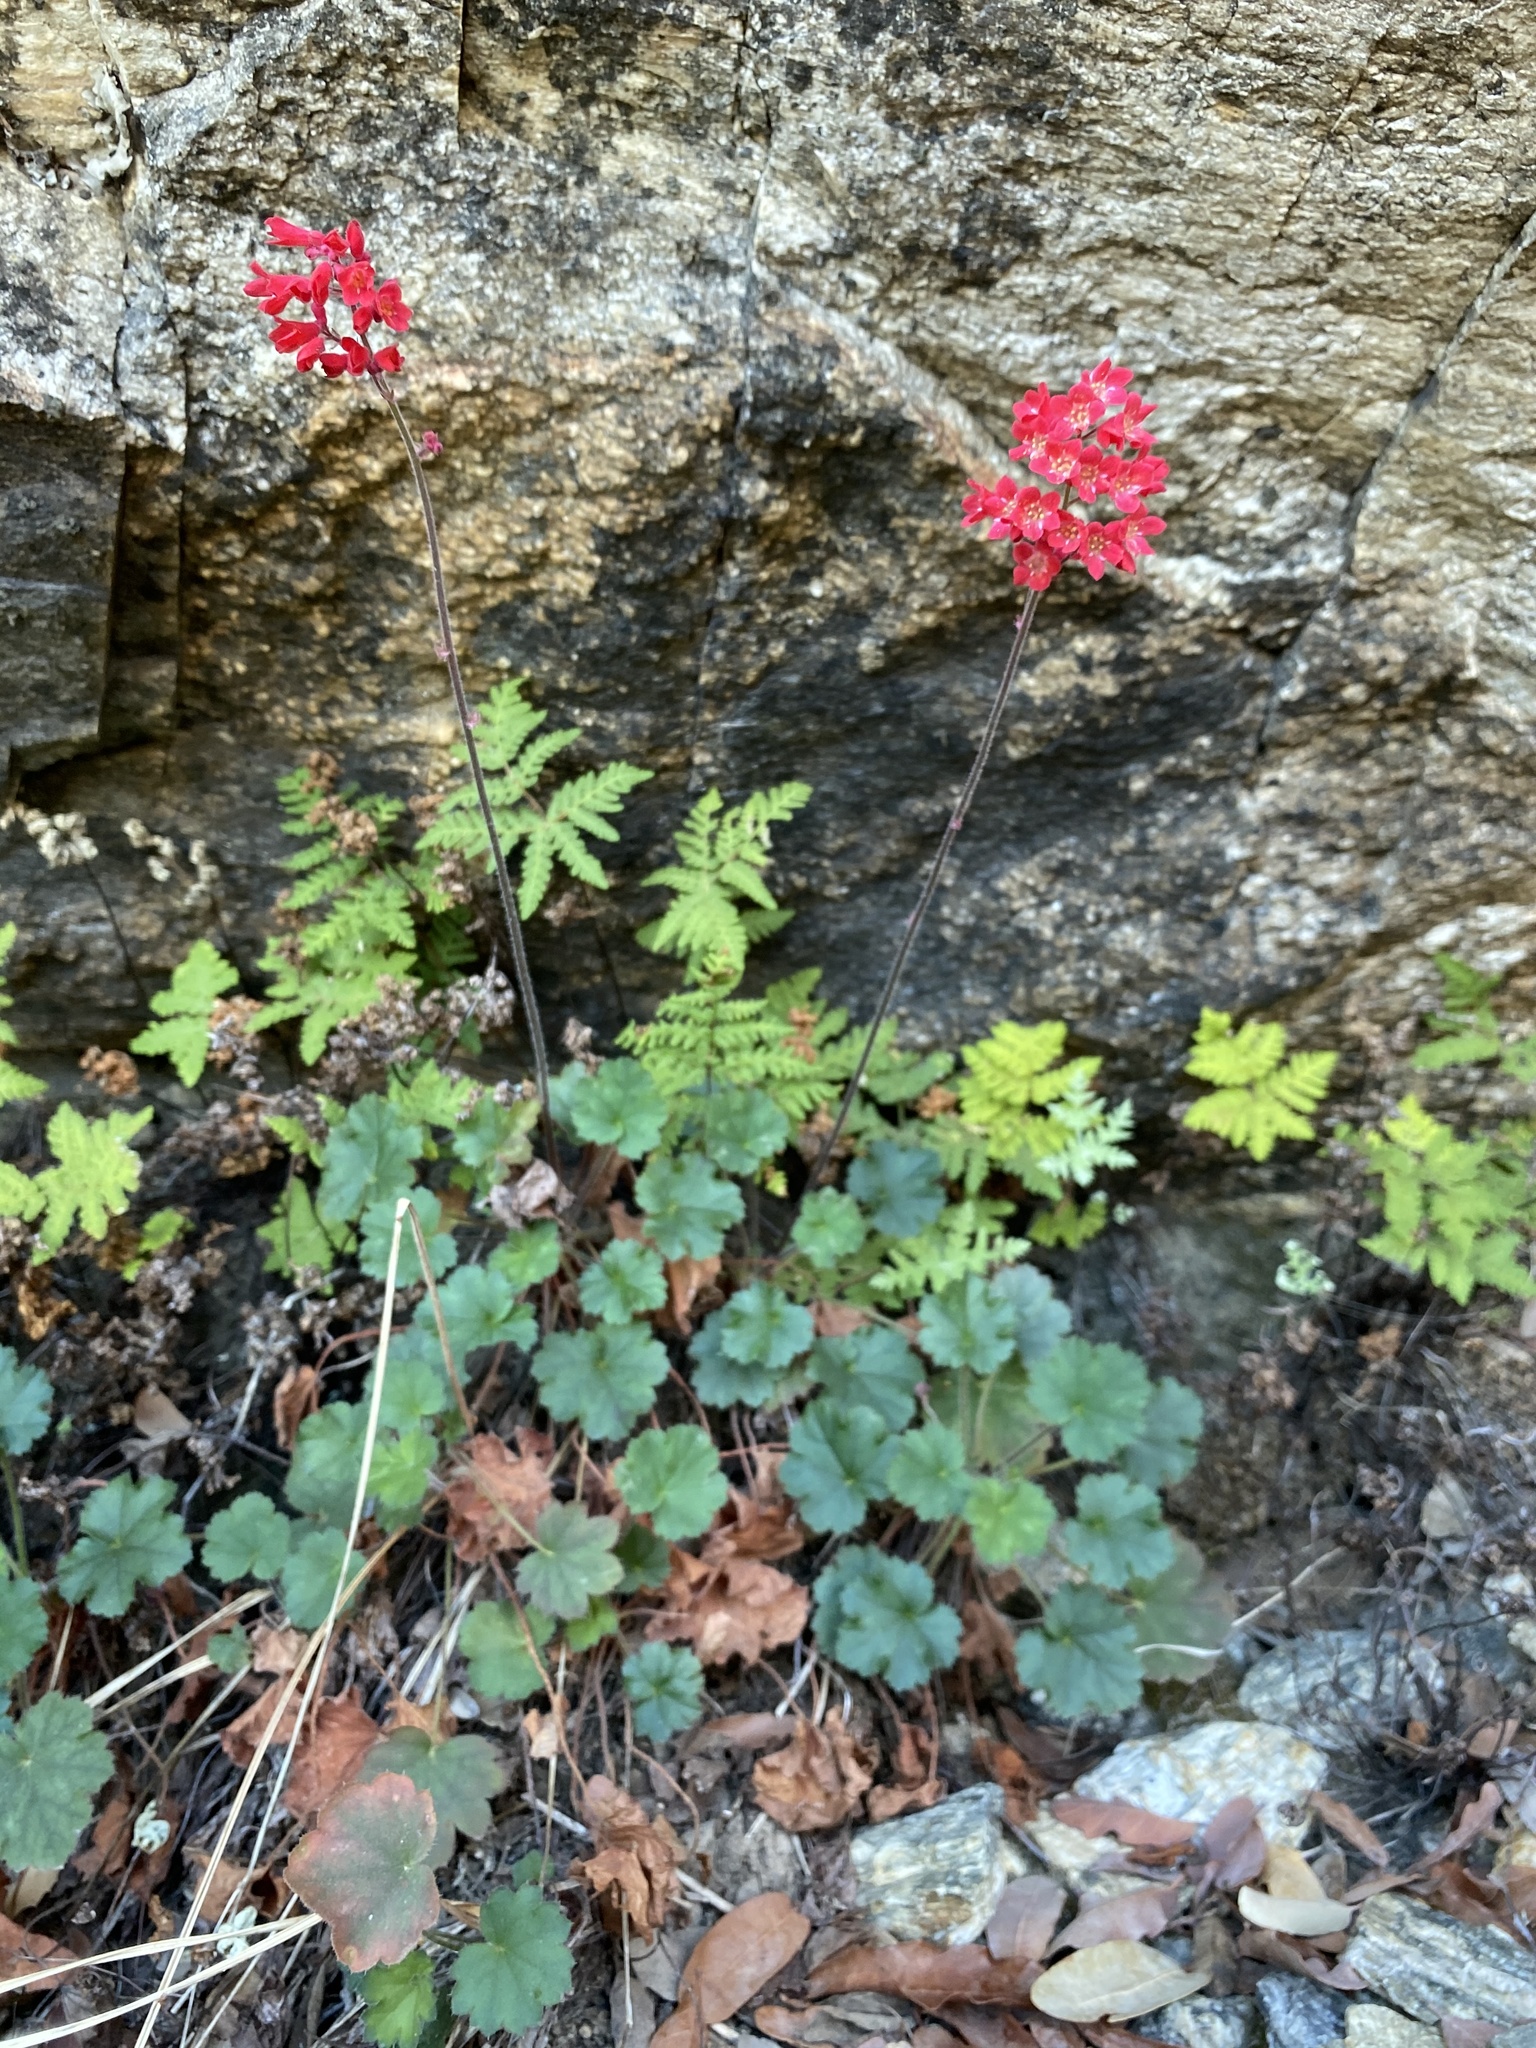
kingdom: Plantae
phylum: Tracheophyta
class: Magnoliopsida
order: Saxifragales
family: Saxifragaceae
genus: Heuchera
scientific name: Heuchera sanguinea
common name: Coralbells
